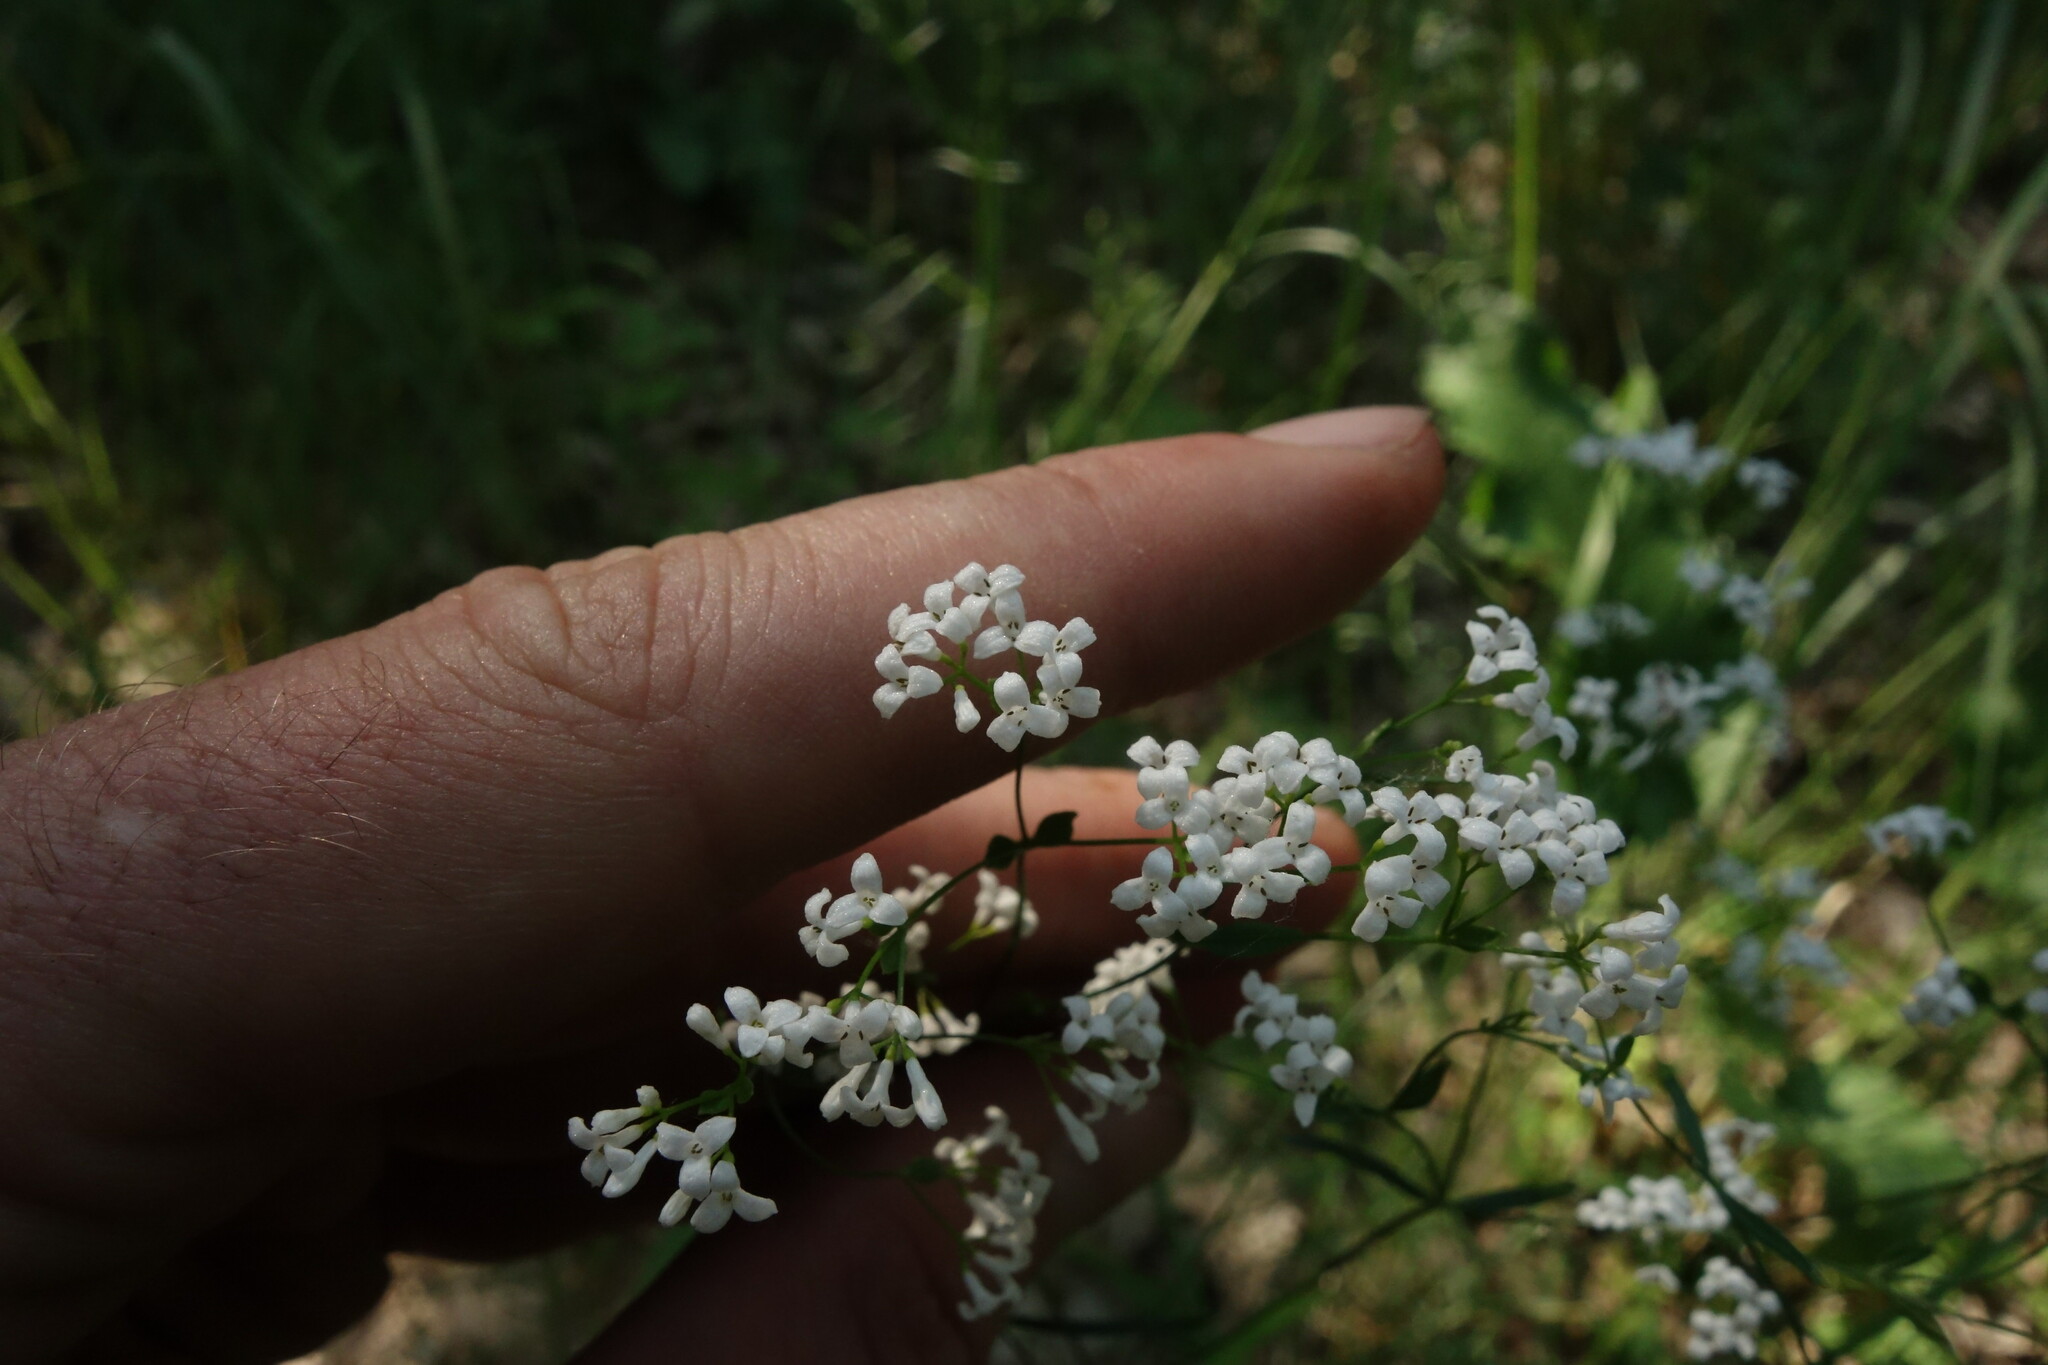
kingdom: Plantae
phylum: Tracheophyta
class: Magnoliopsida
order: Gentianales
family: Rubiaceae
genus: Asperula
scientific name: Asperula tinctoria
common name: Dyer's woodruff
